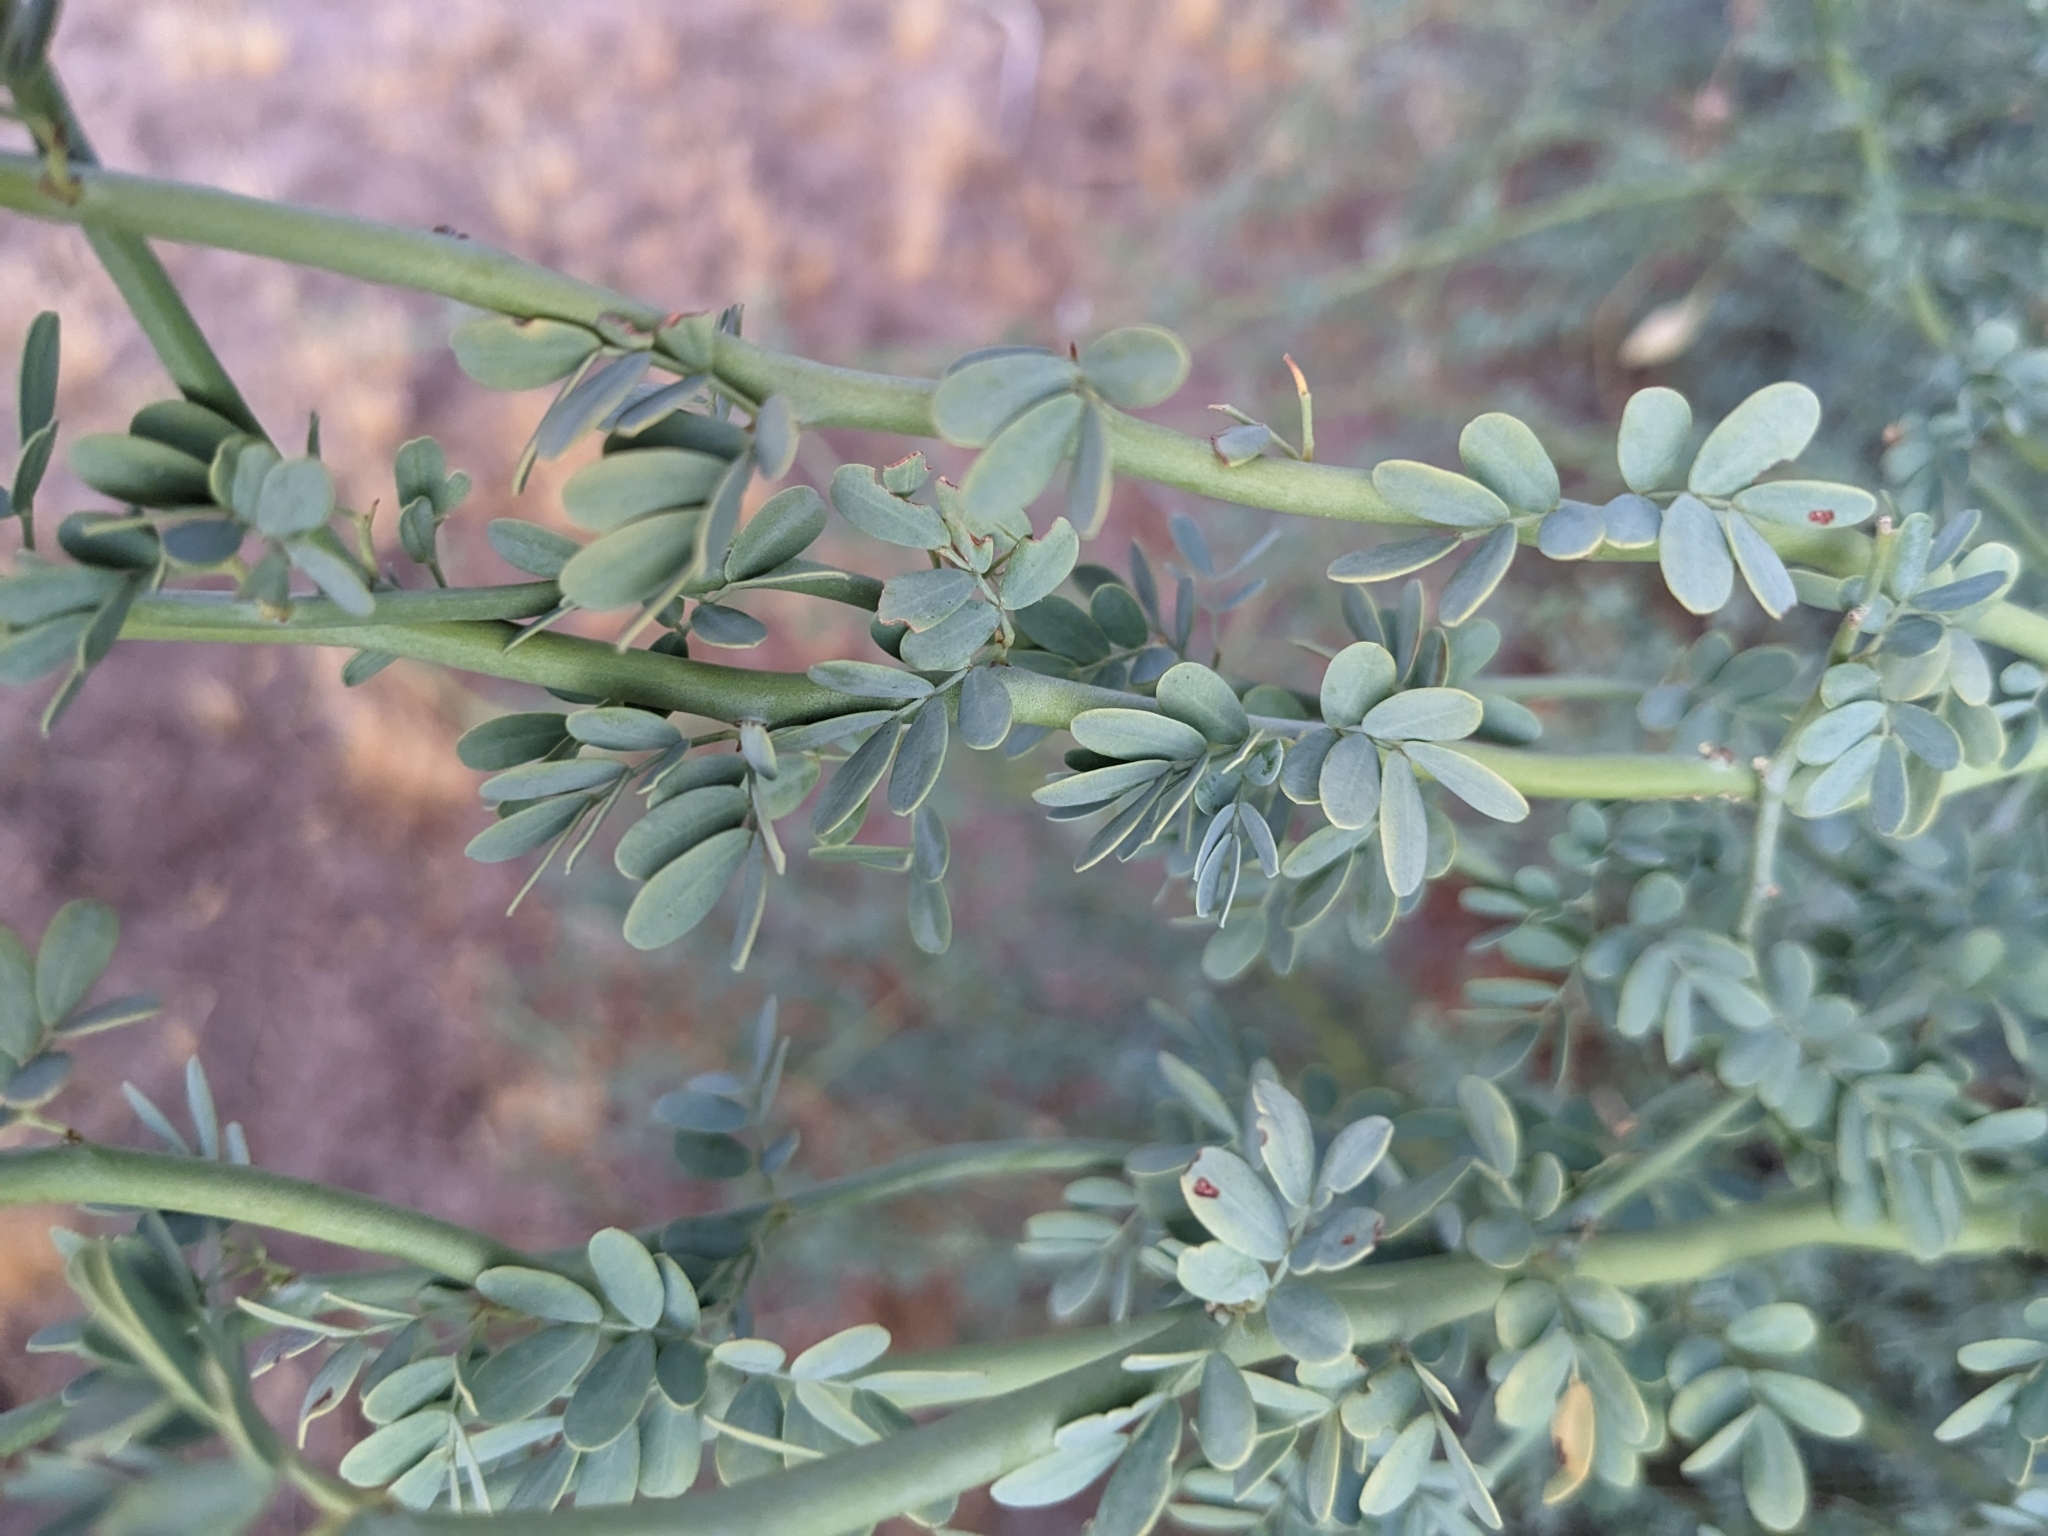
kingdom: Plantae
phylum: Tracheophyta
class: Magnoliopsida
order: Fabales
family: Fabaceae
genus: Parkinsonia
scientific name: Parkinsonia florida
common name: Blue paloverde
